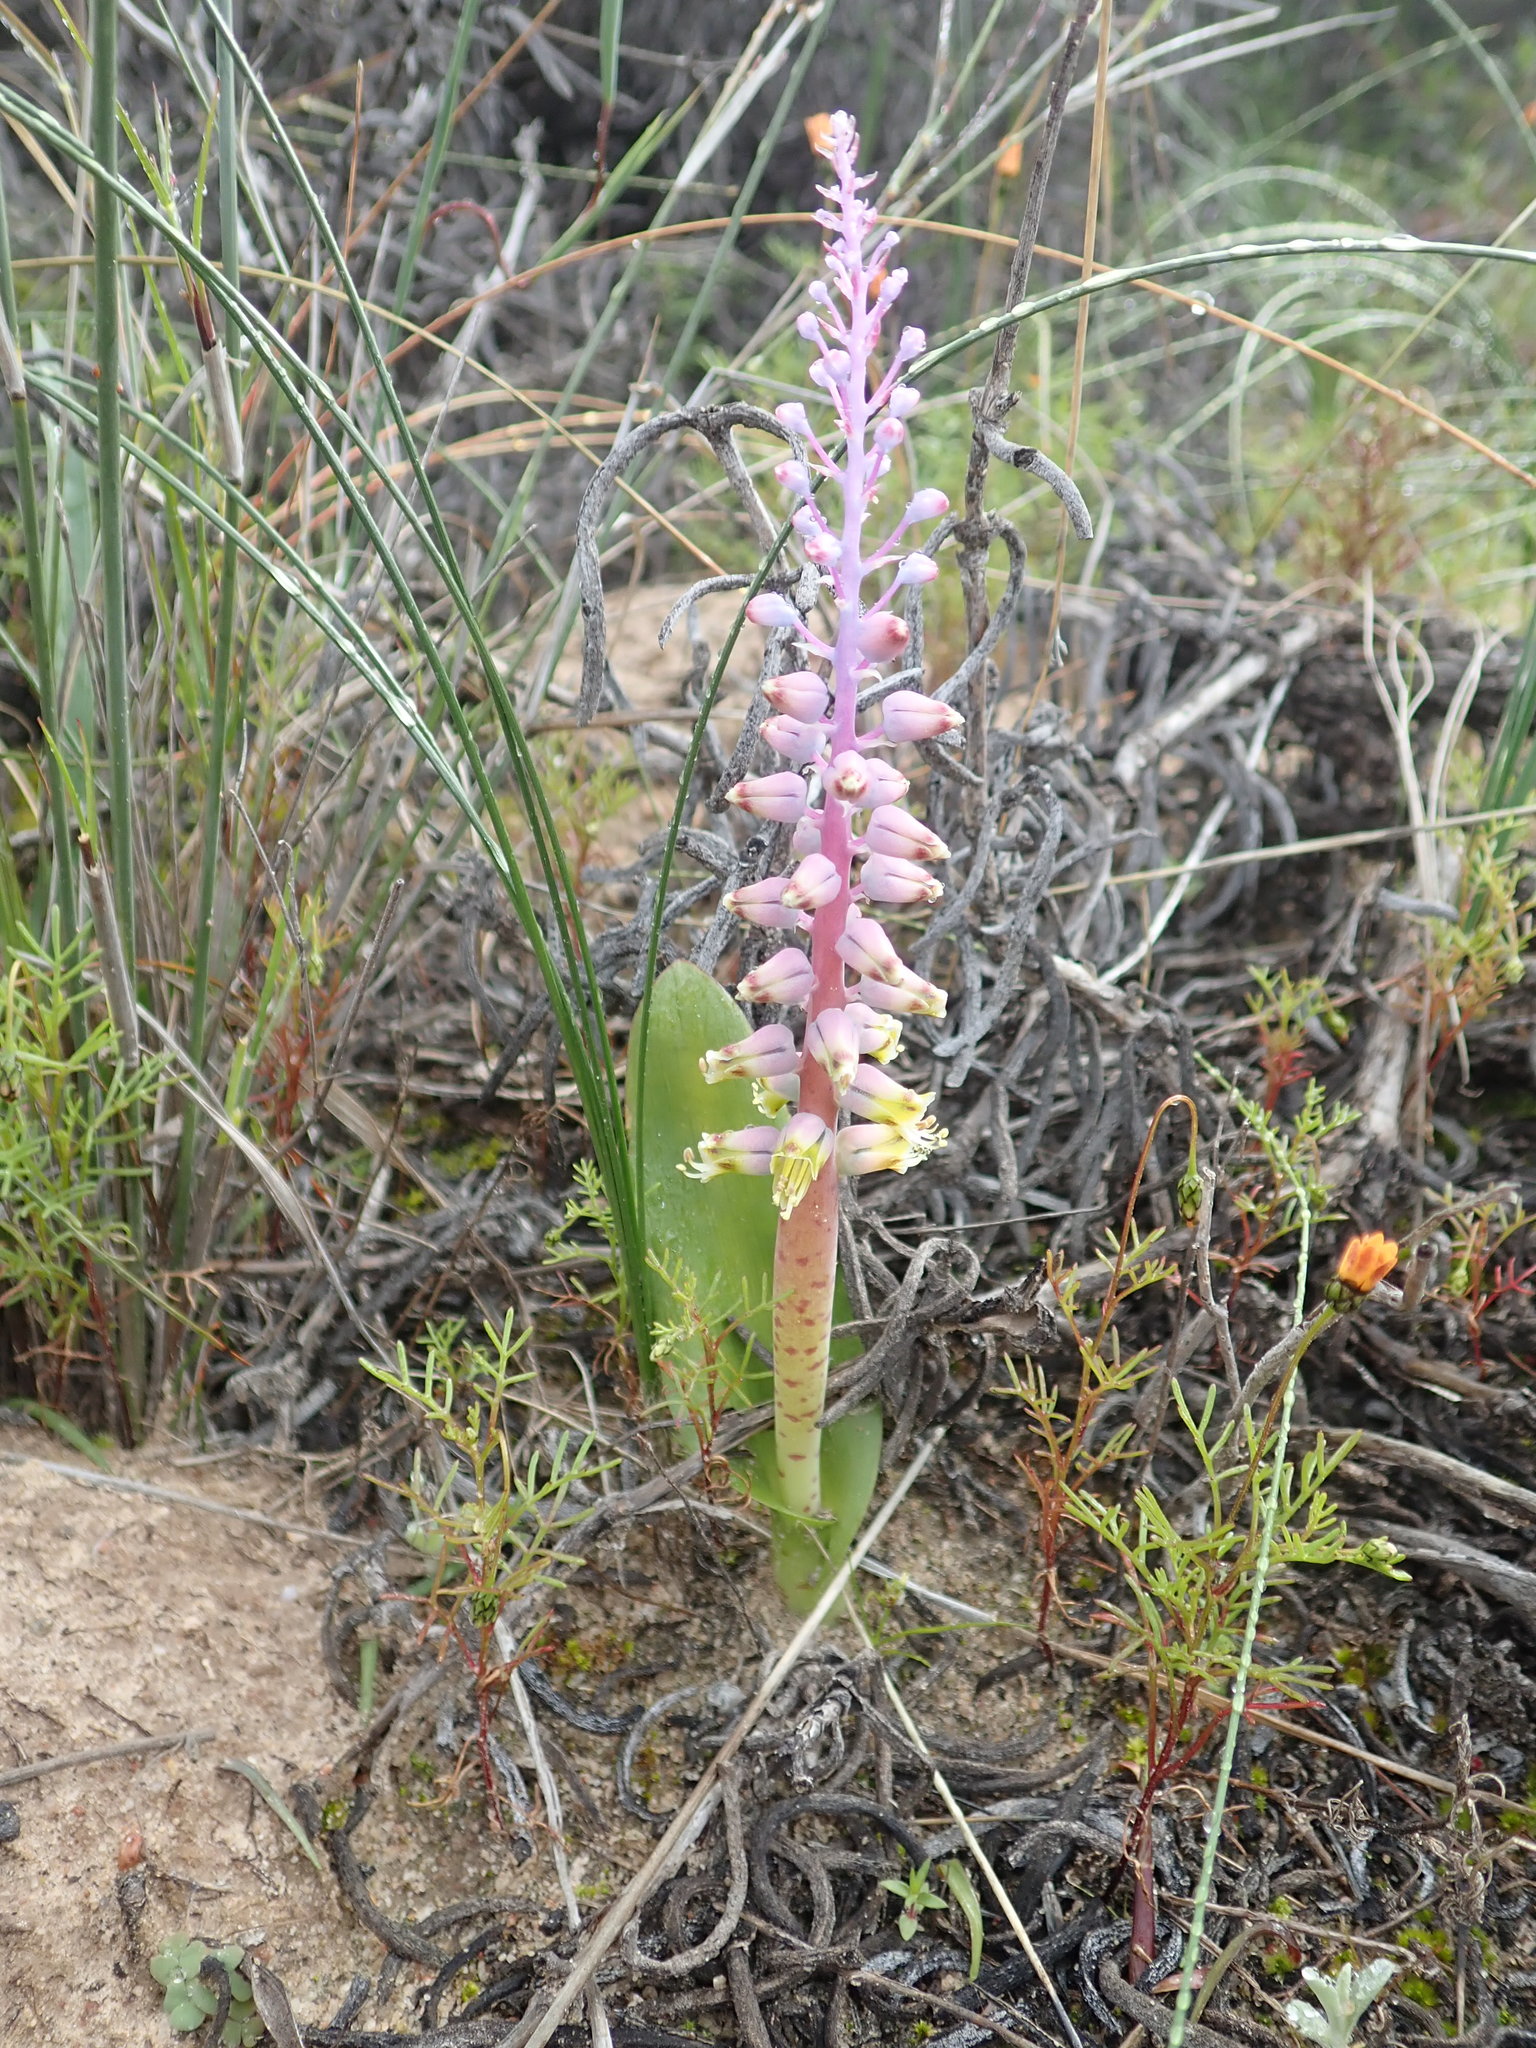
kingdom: Plantae
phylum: Tracheophyta
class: Liliopsida
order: Asparagales
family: Asparagaceae
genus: Lachenalia
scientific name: Lachenalia mutabilis
